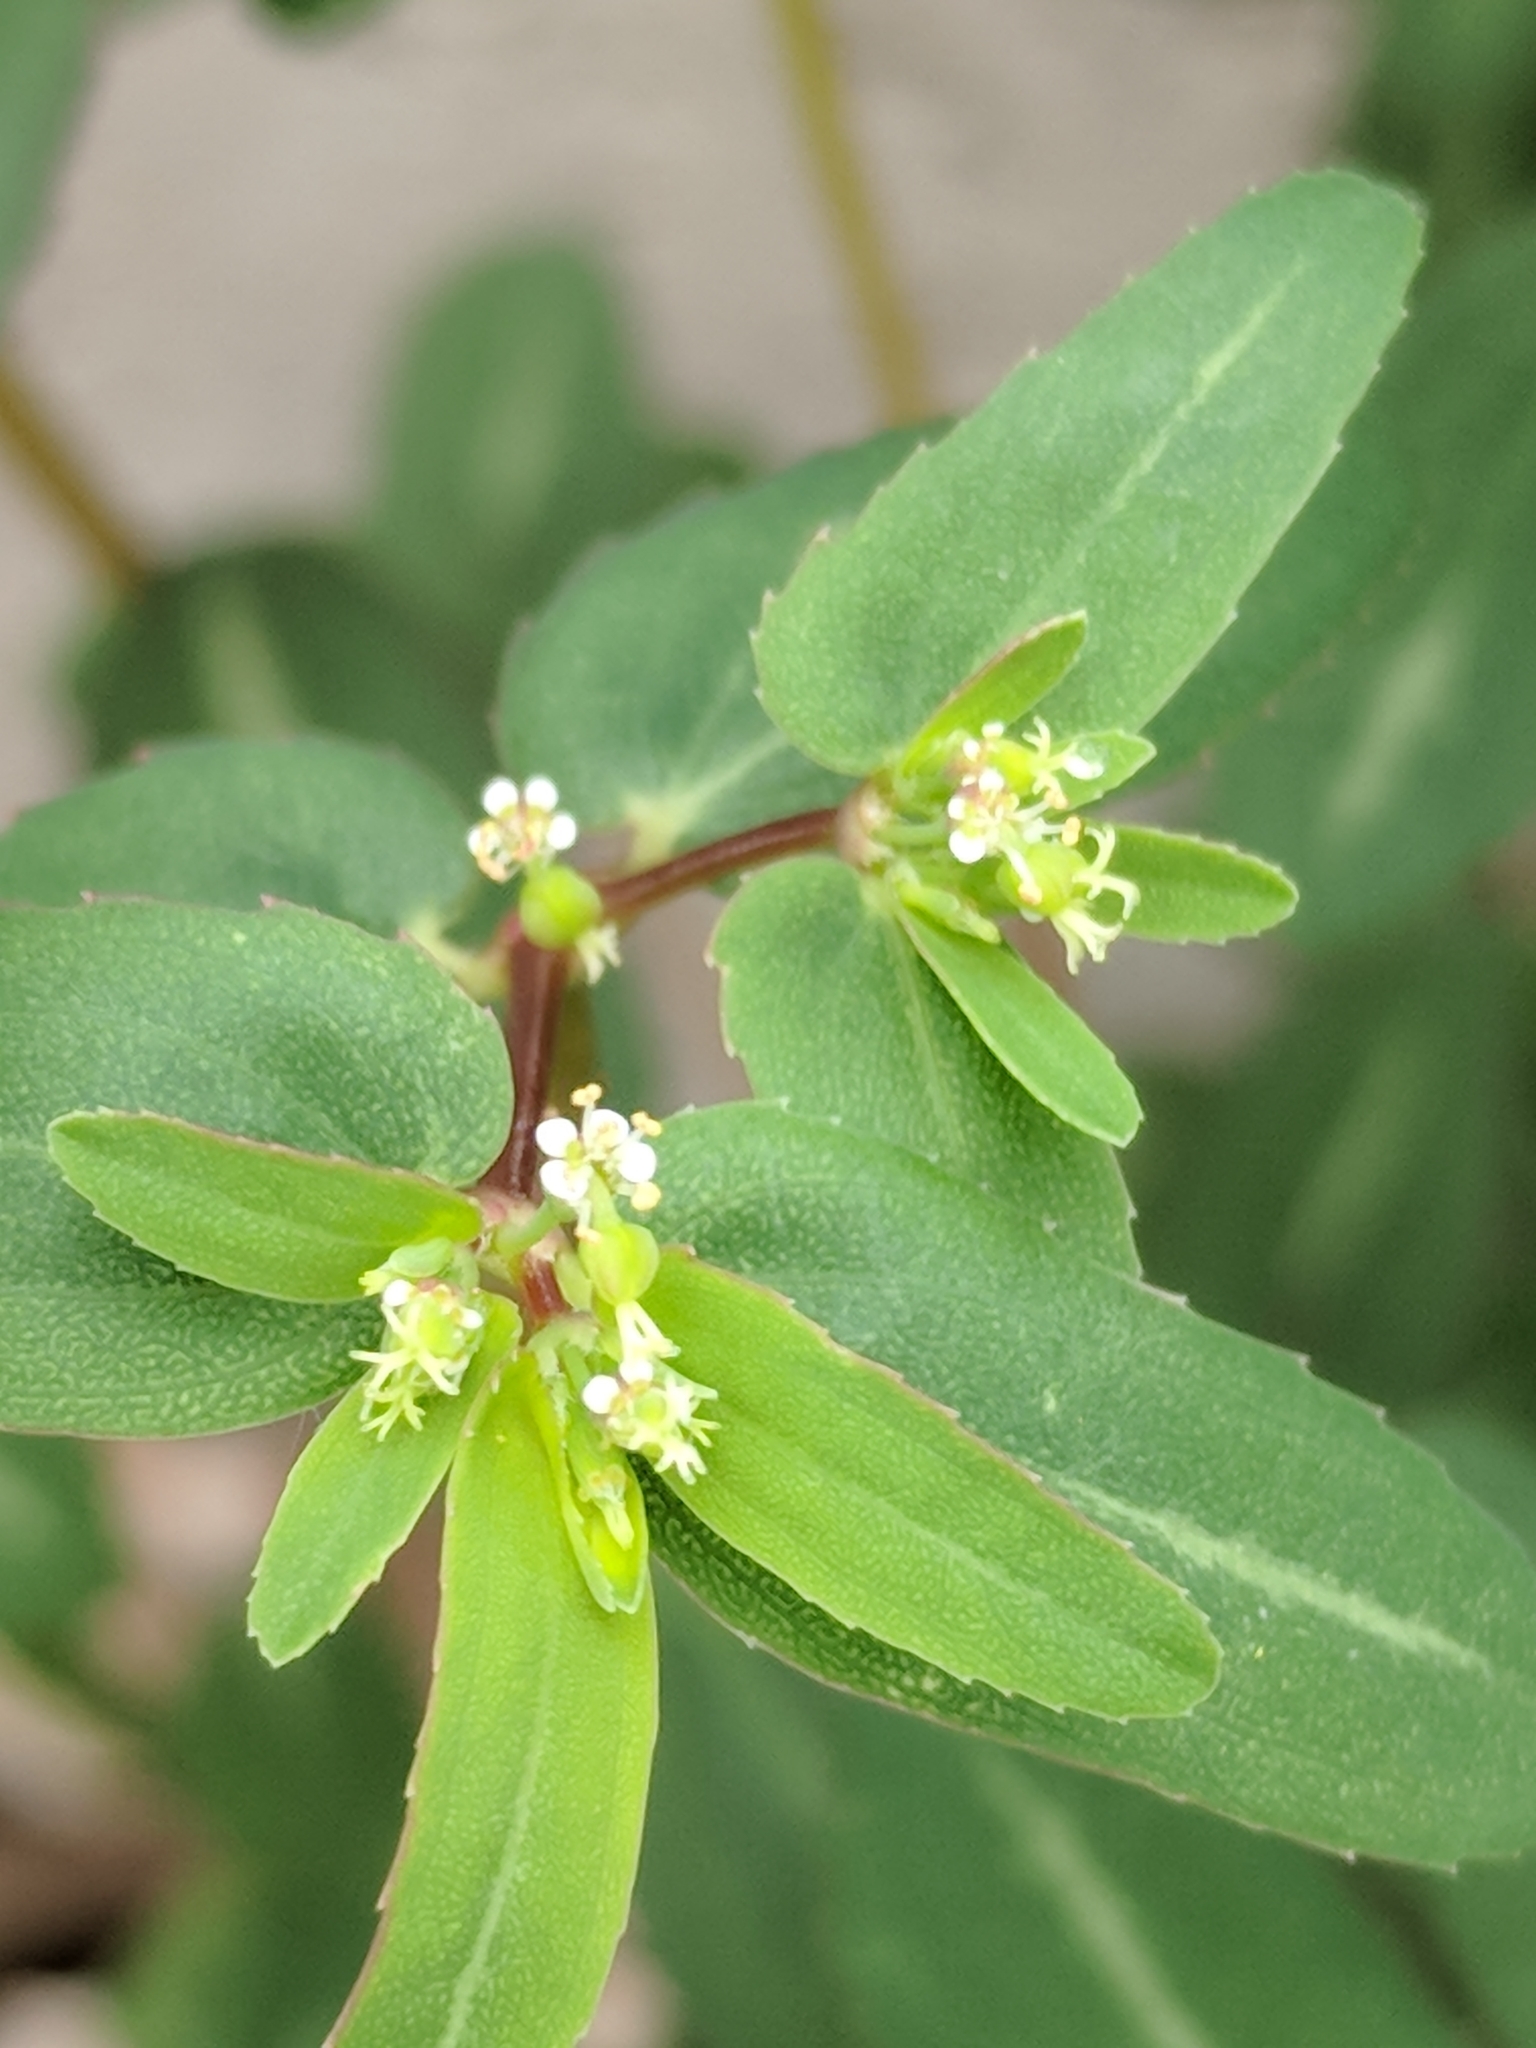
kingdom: Plantae
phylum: Tracheophyta
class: Magnoliopsida
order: Malpighiales
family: Euphorbiaceae
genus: Euphorbia
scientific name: Euphorbia nutans
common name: Eyebane
